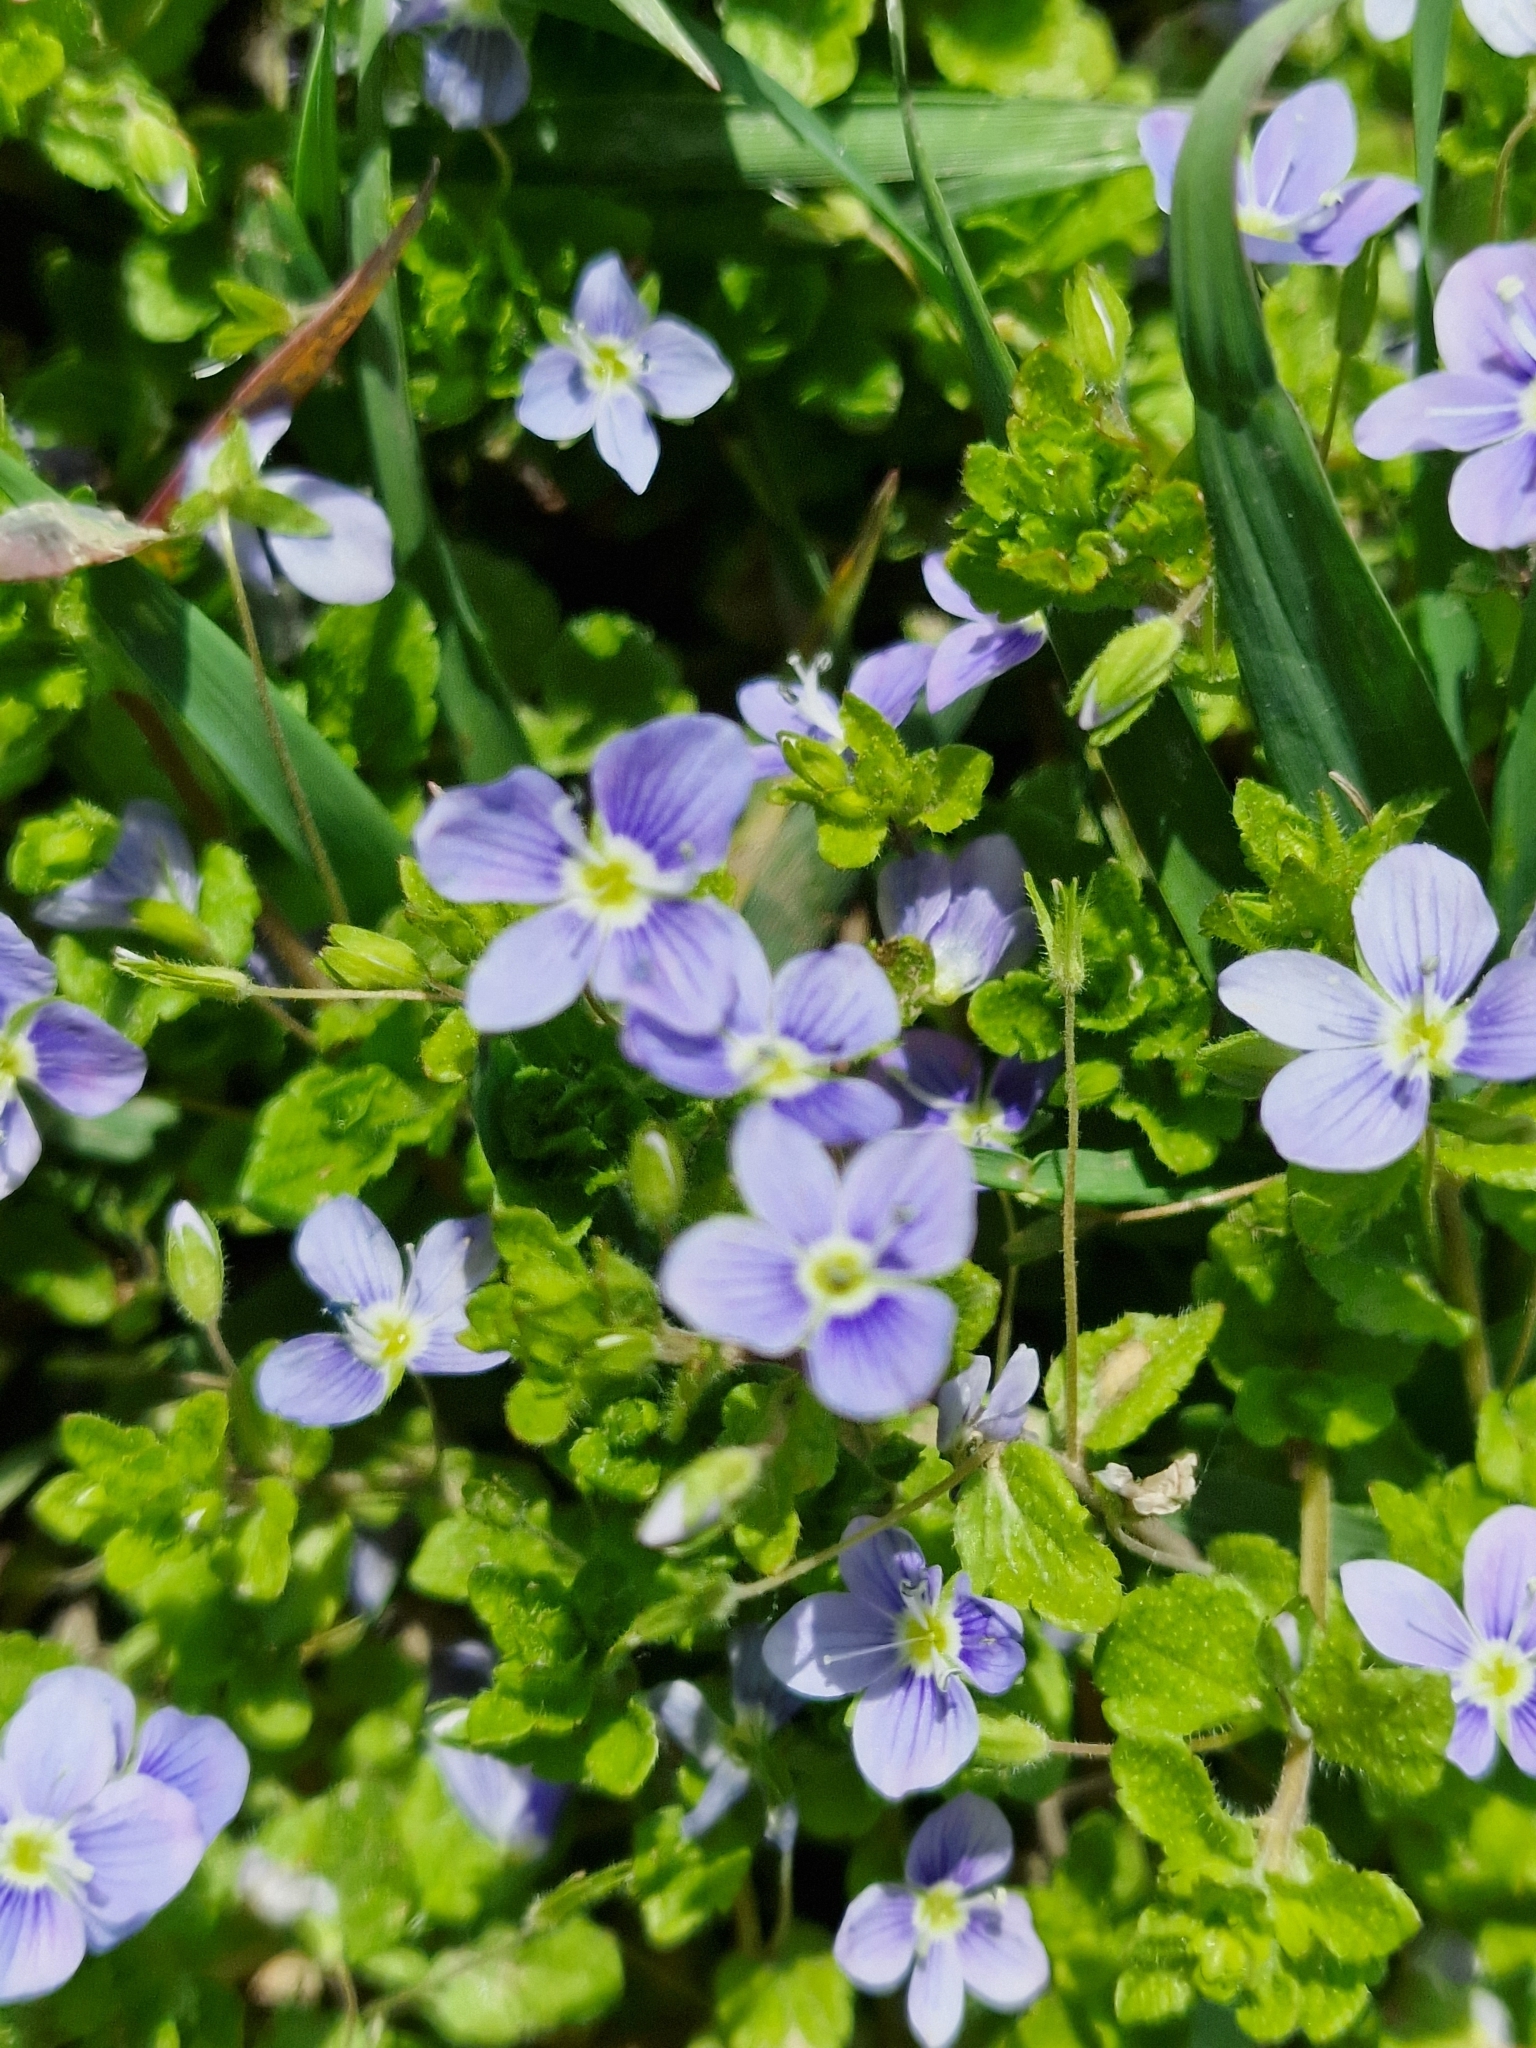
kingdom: Plantae
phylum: Tracheophyta
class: Magnoliopsida
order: Lamiales
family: Plantaginaceae
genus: Veronica
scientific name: Veronica filiformis
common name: Slender speedwell
